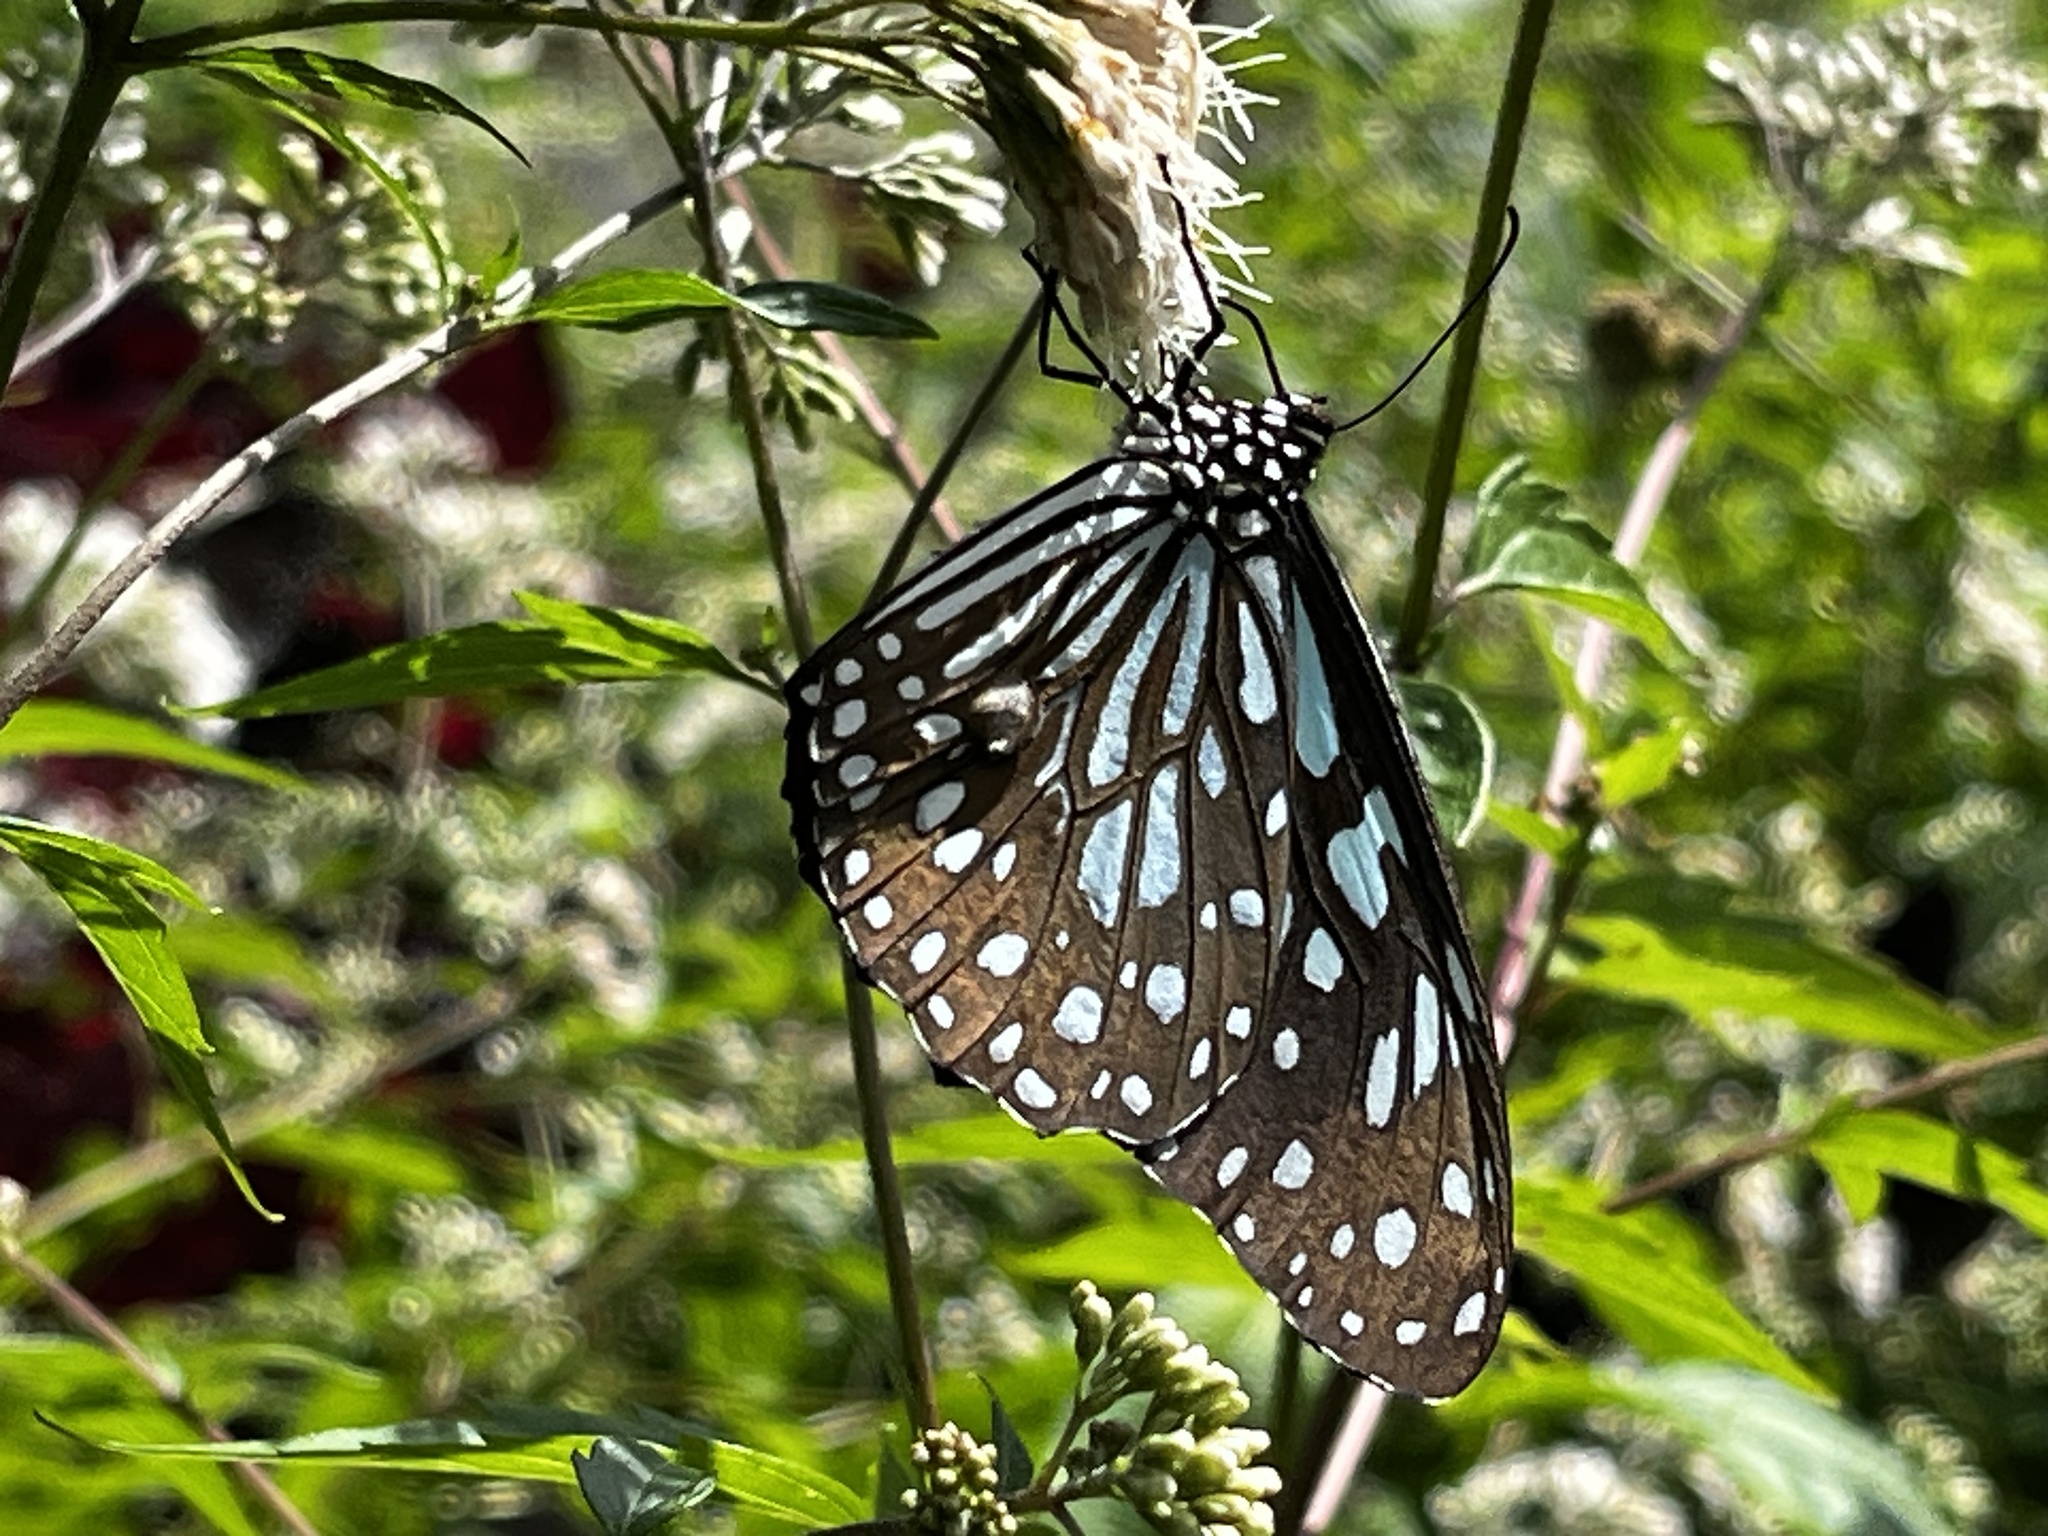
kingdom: Animalia
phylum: Arthropoda
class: Insecta
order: Lepidoptera
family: Nymphalidae
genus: Tirumala
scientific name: Tirumala limniace
